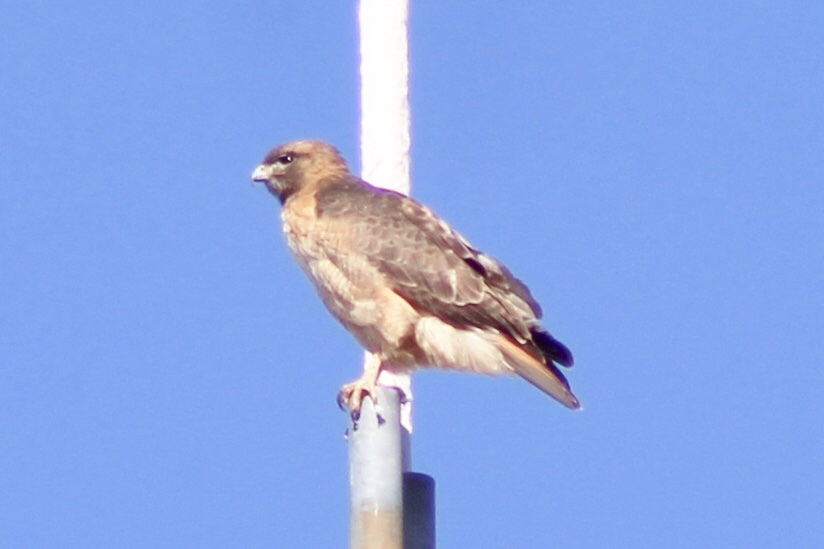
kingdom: Animalia
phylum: Chordata
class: Aves
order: Accipitriformes
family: Accipitridae
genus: Buteo
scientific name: Buteo jamaicensis
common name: Red-tailed hawk
